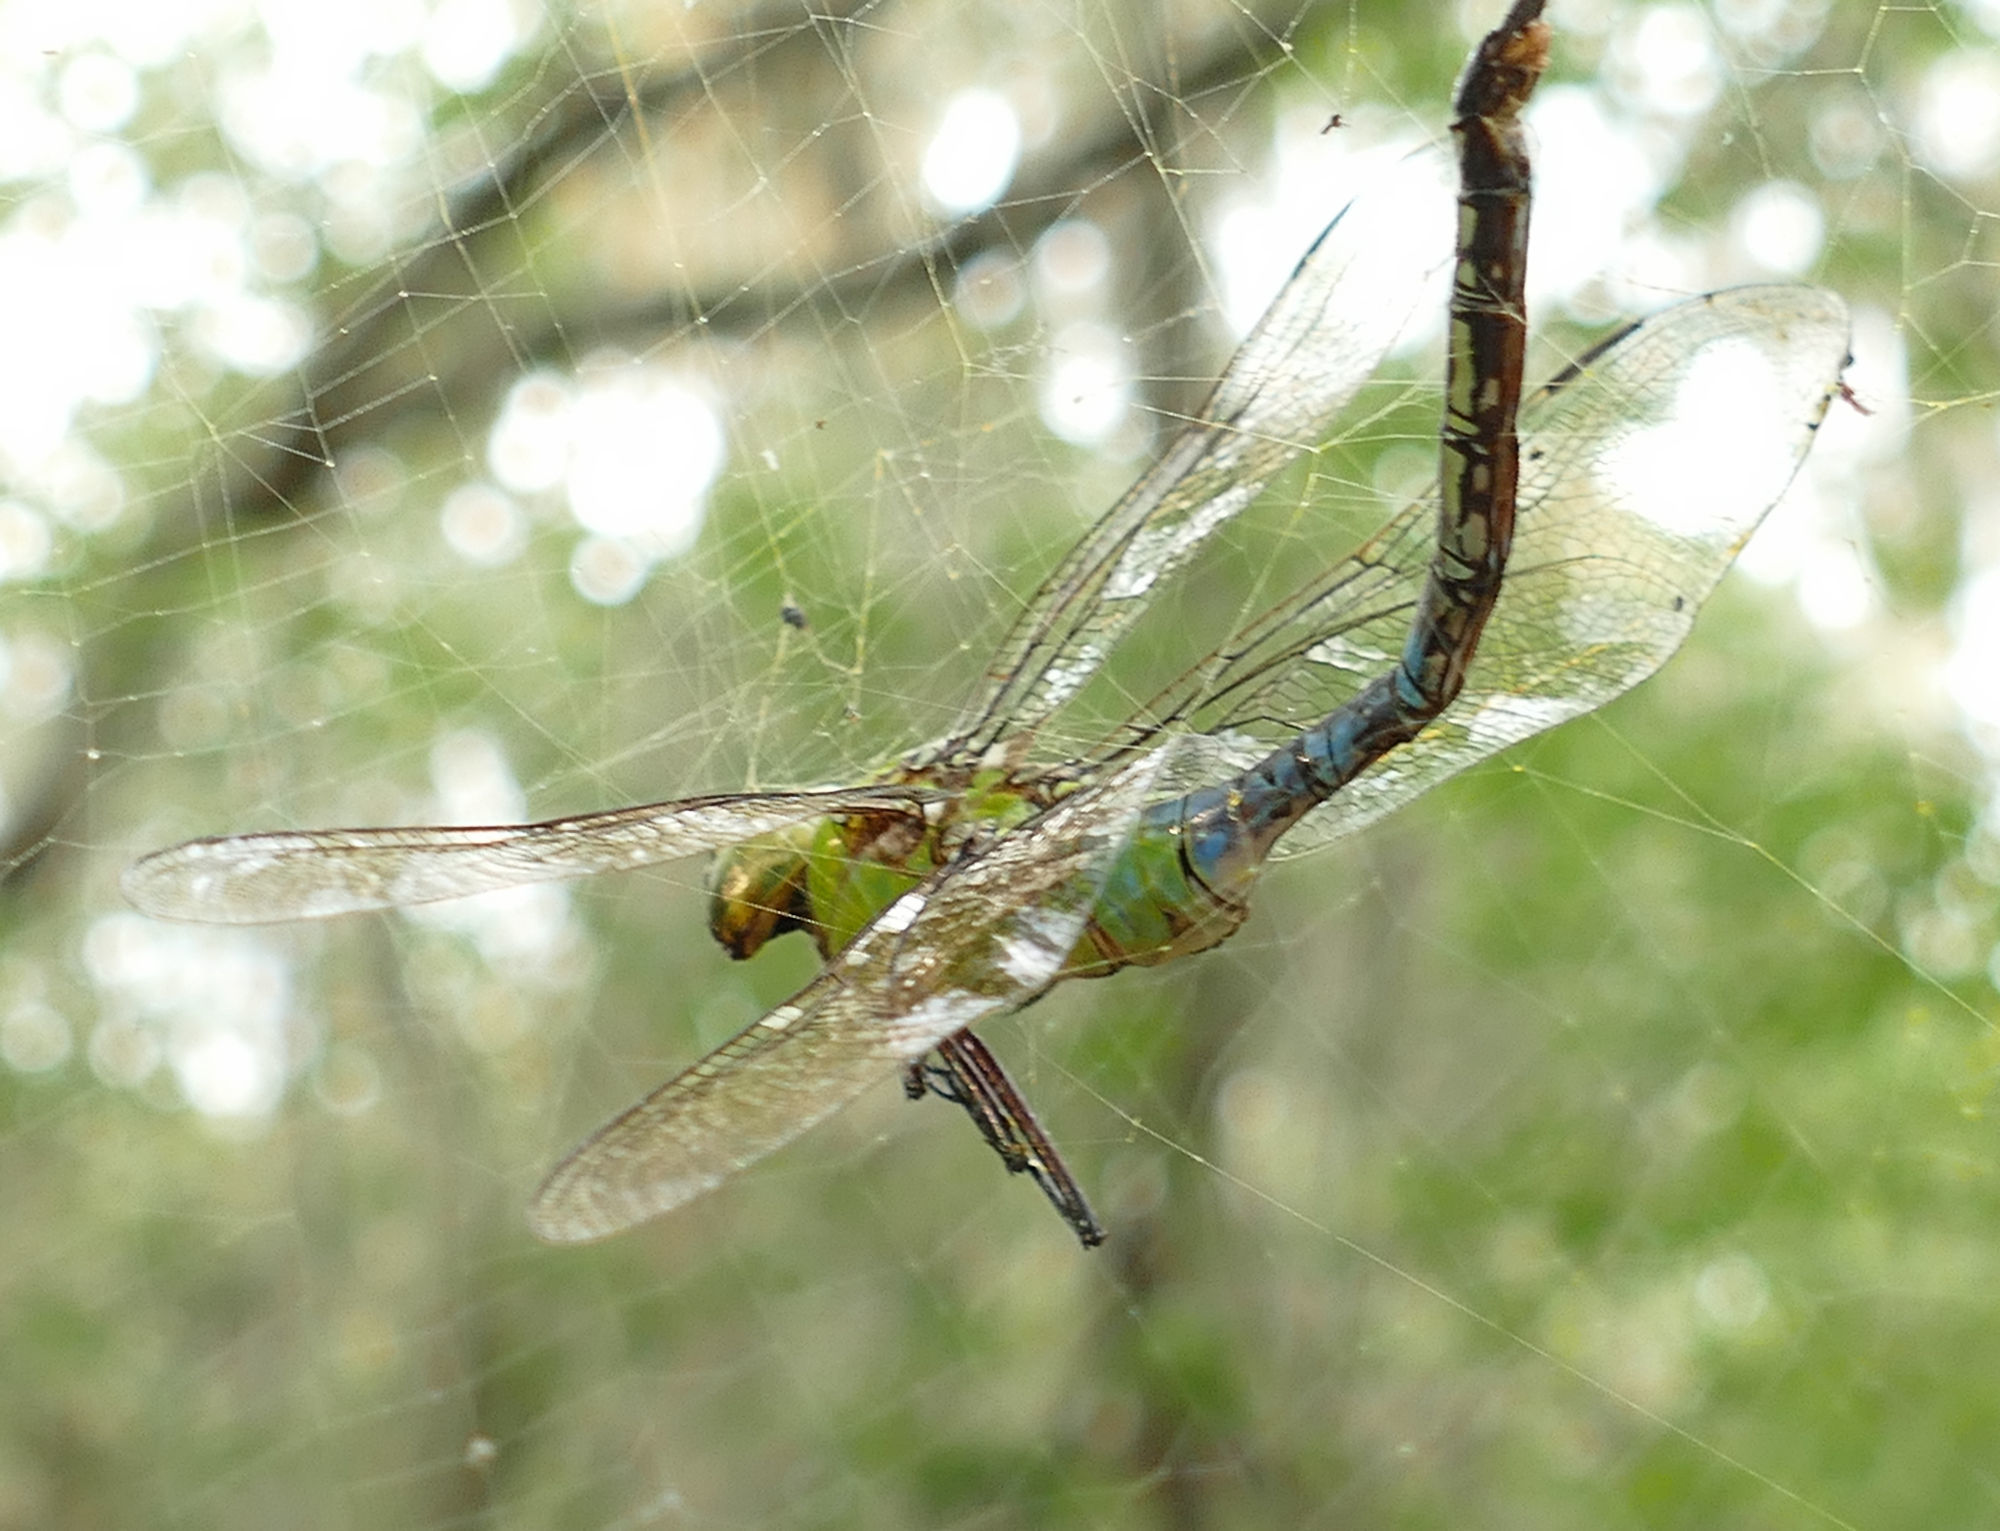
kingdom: Animalia
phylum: Arthropoda
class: Insecta
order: Odonata
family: Aeshnidae
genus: Anax
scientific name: Anax junius
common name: Common green darner
